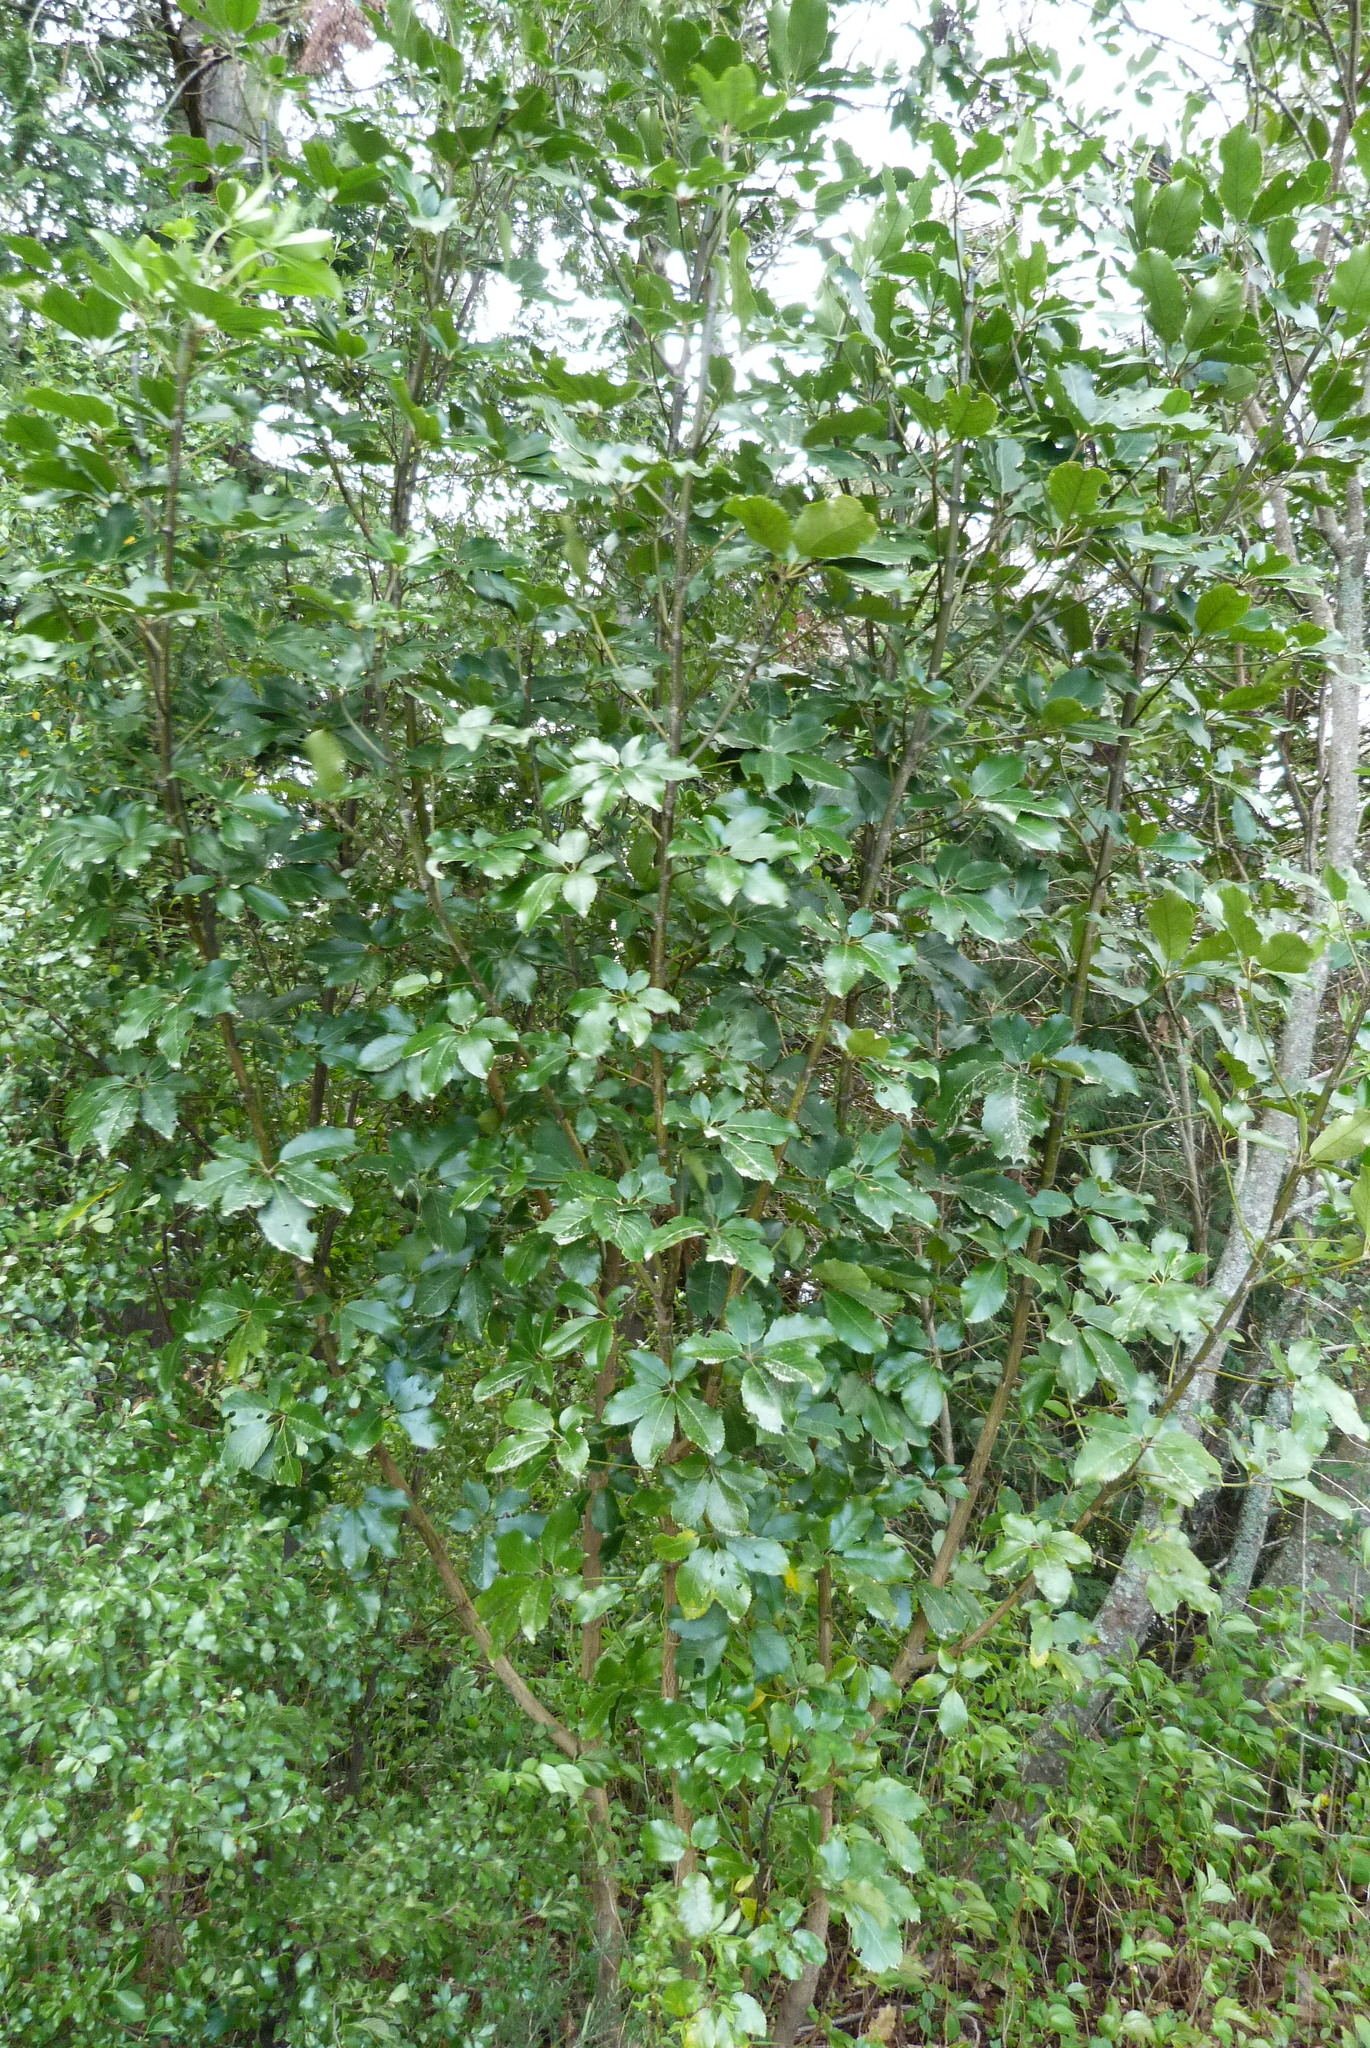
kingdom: Plantae
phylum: Tracheophyta
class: Magnoliopsida
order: Apiales
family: Araliaceae
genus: Neopanax
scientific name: Neopanax arboreus
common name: Five-fingers
